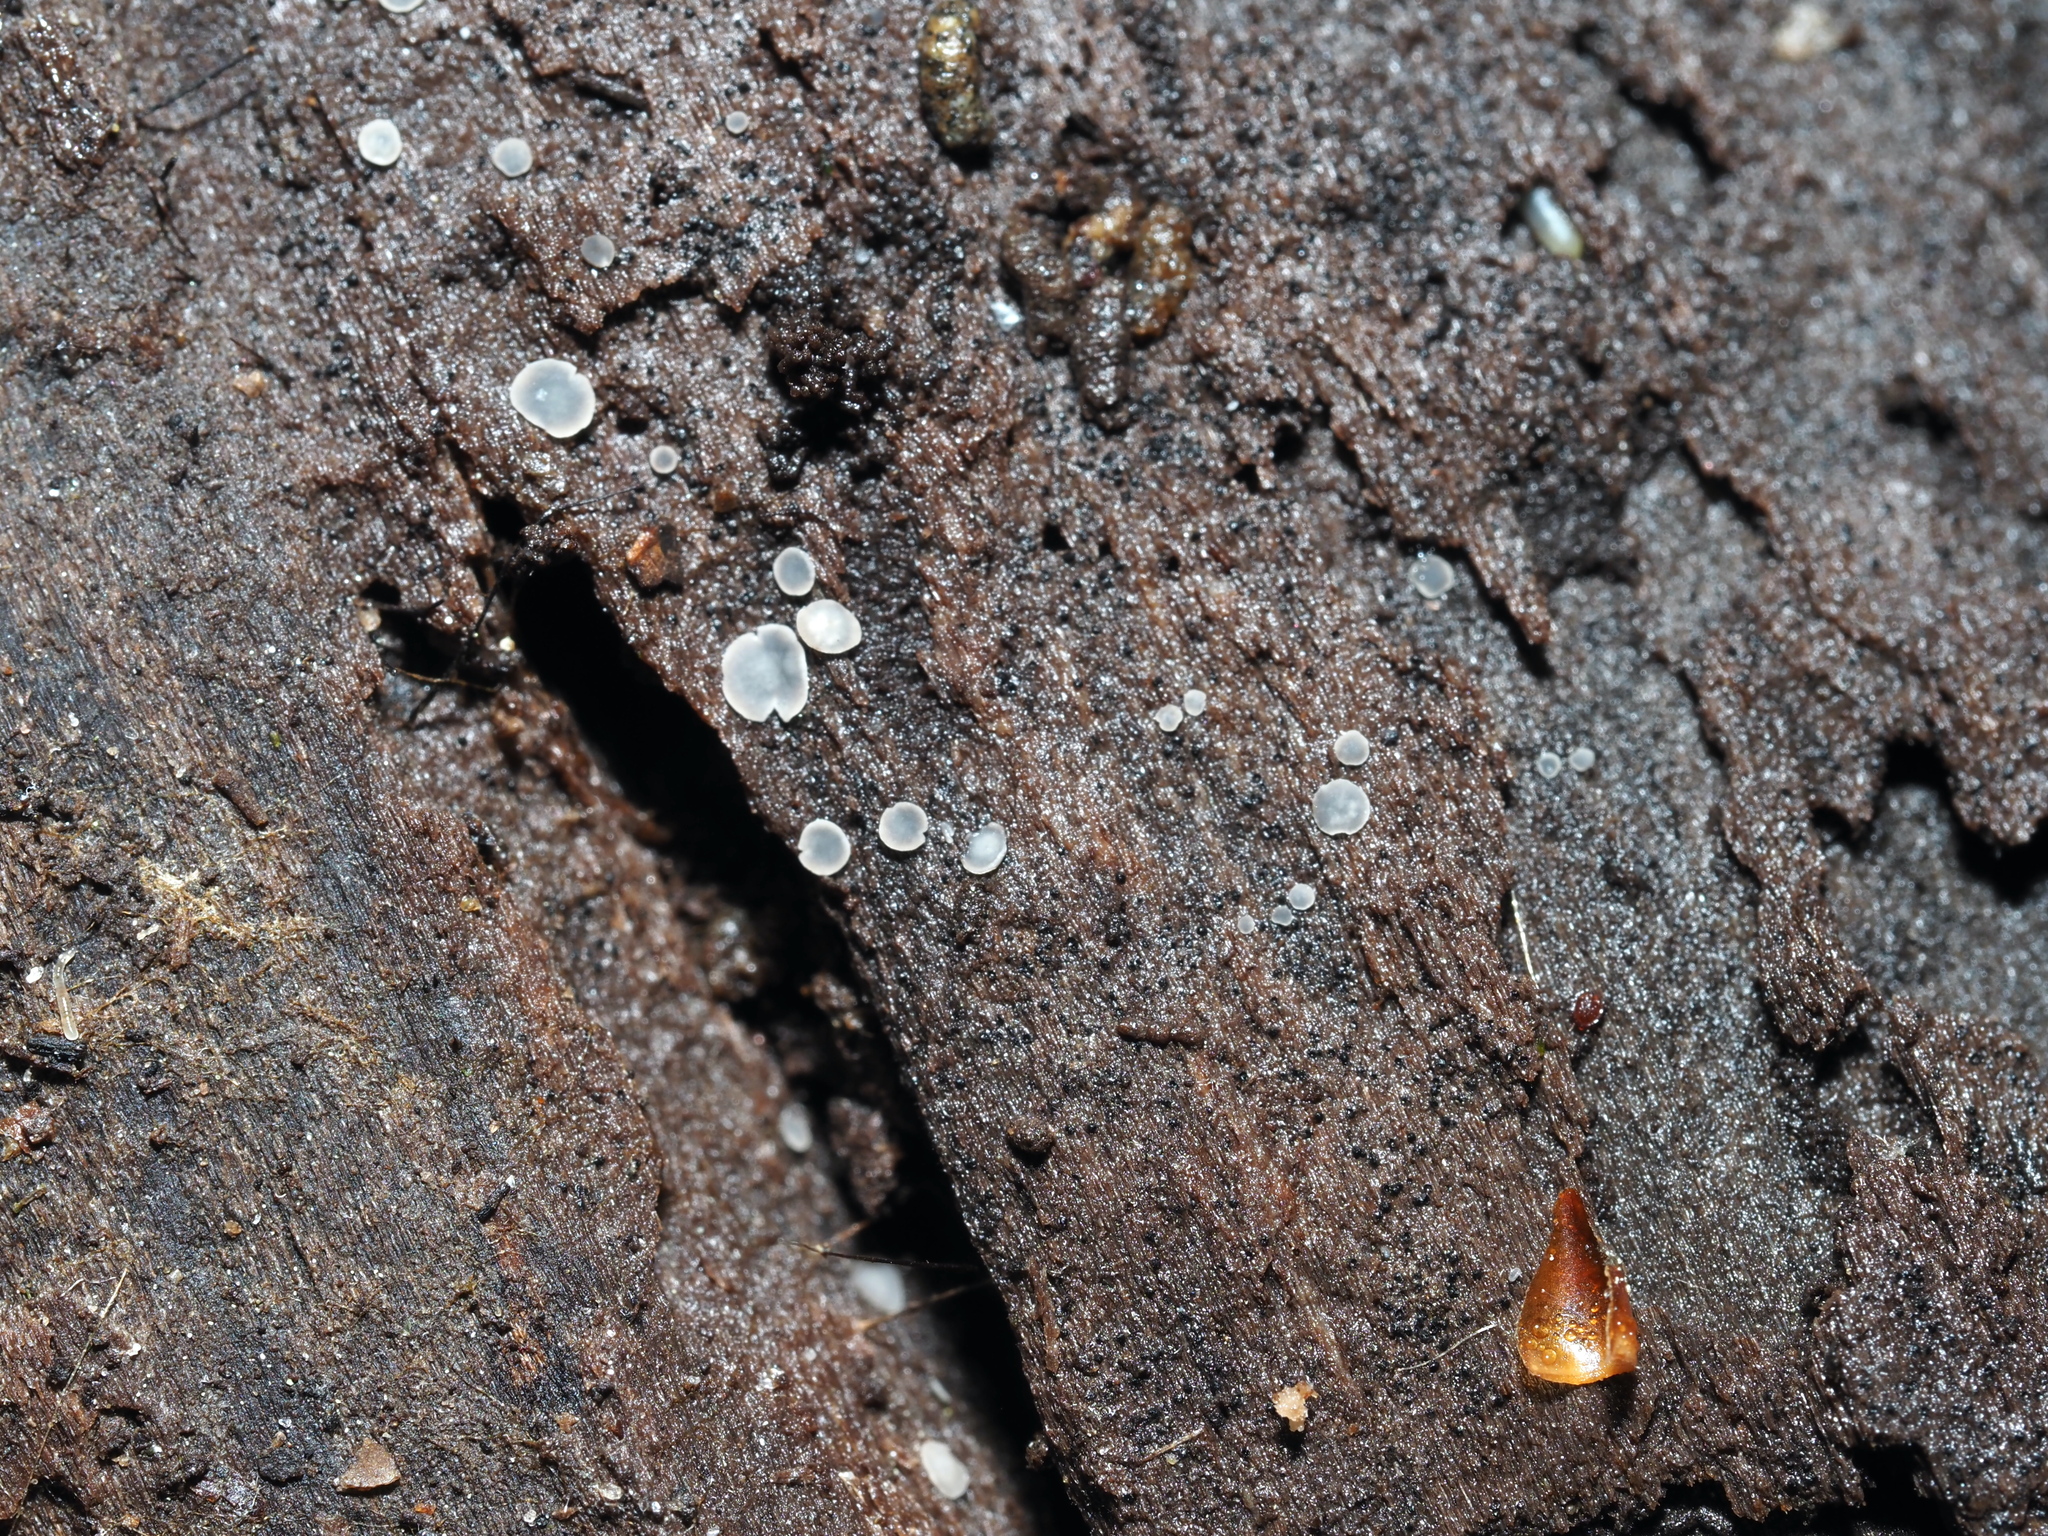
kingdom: Fungi
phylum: Ascomycota
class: Leotiomycetes
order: Helotiales
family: Mollisiaceae
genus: Mollisia
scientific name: Mollisia cinerea
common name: Common grey disco
